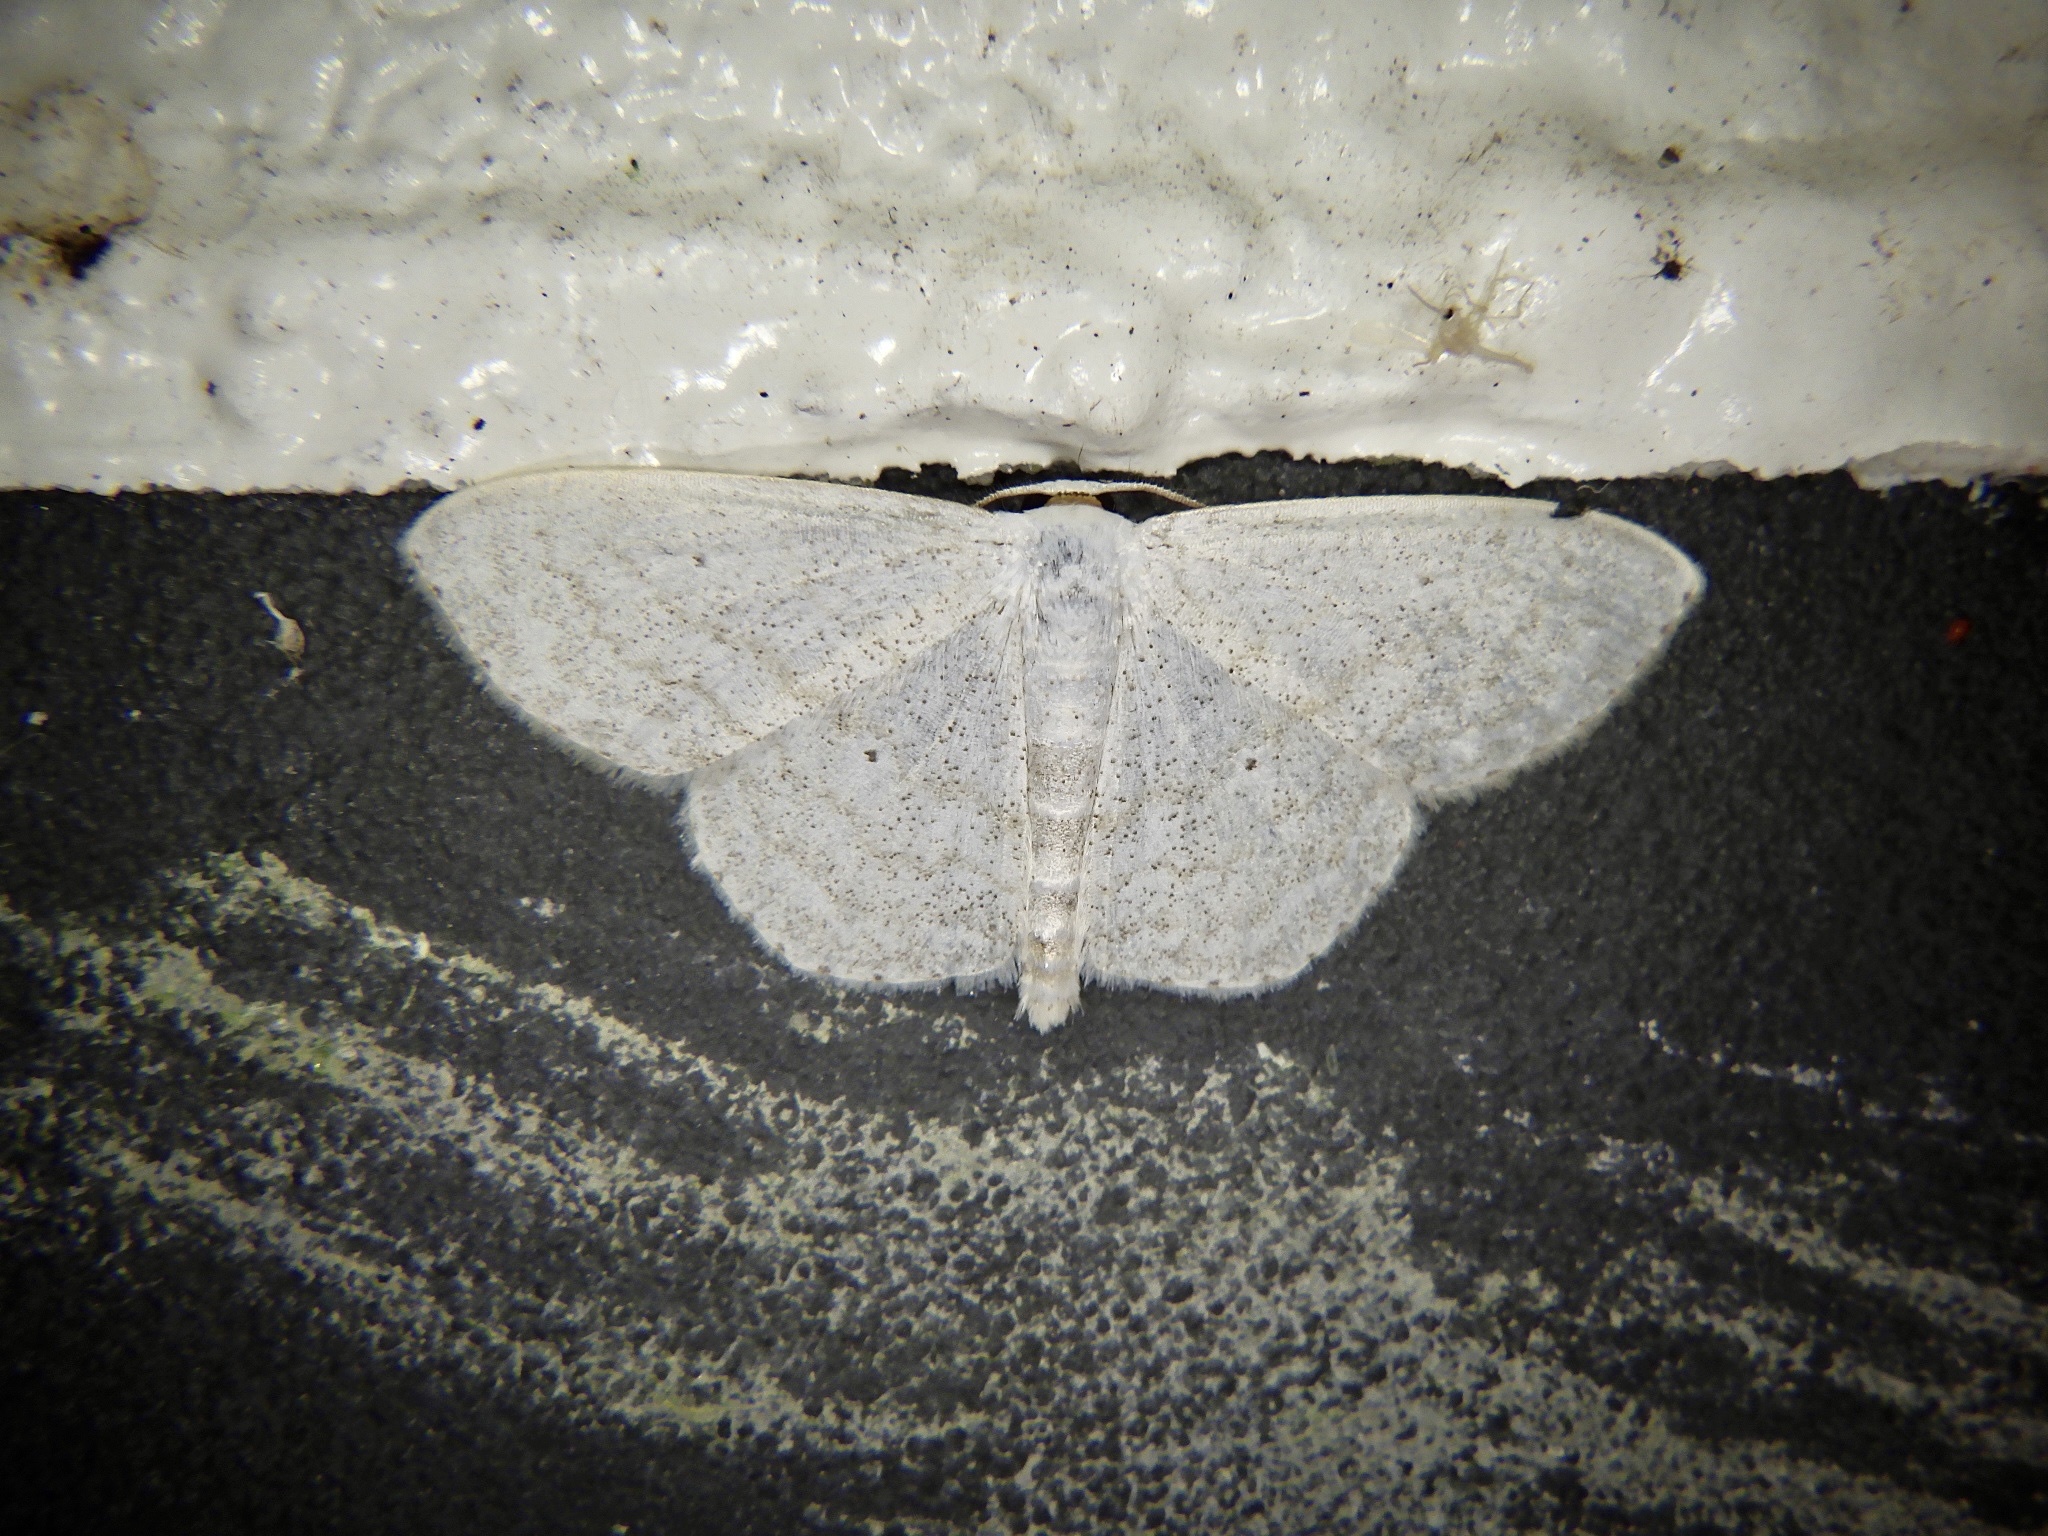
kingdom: Animalia
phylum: Arthropoda
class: Insecta
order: Lepidoptera
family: Geometridae
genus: Scopula
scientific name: Scopula epiorrhoe
